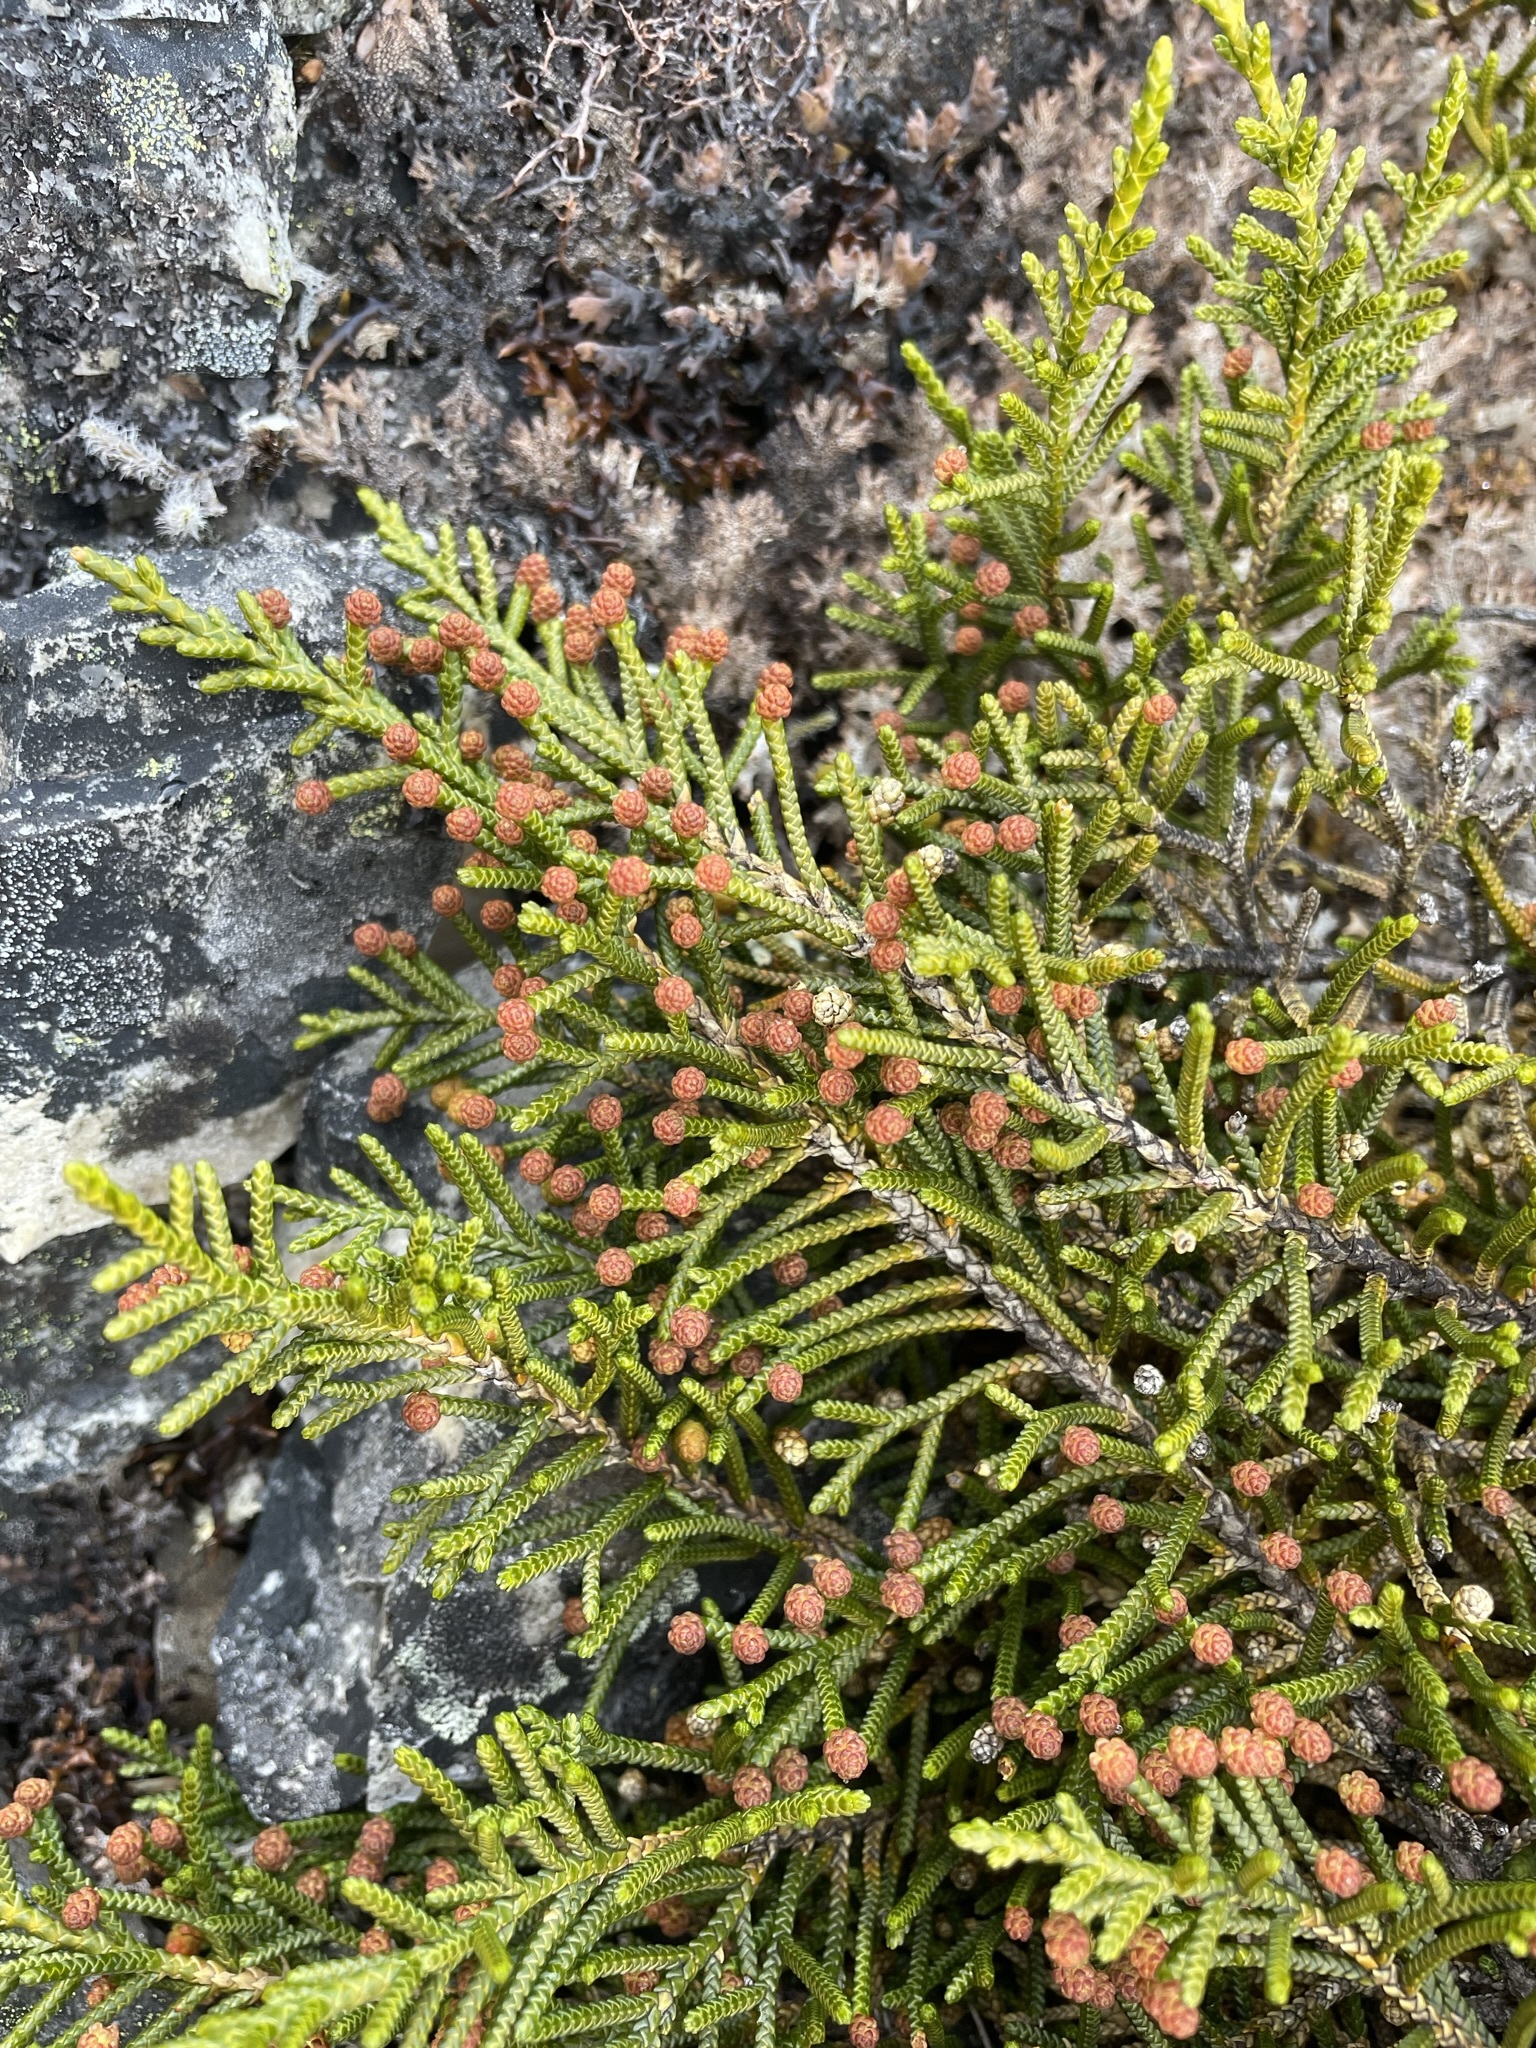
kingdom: Plantae
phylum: Tracheophyta
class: Pinopsida
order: Pinales
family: Podocarpaceae
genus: Microcachrys
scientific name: Microcachrys tetragona
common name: Creeping pine
